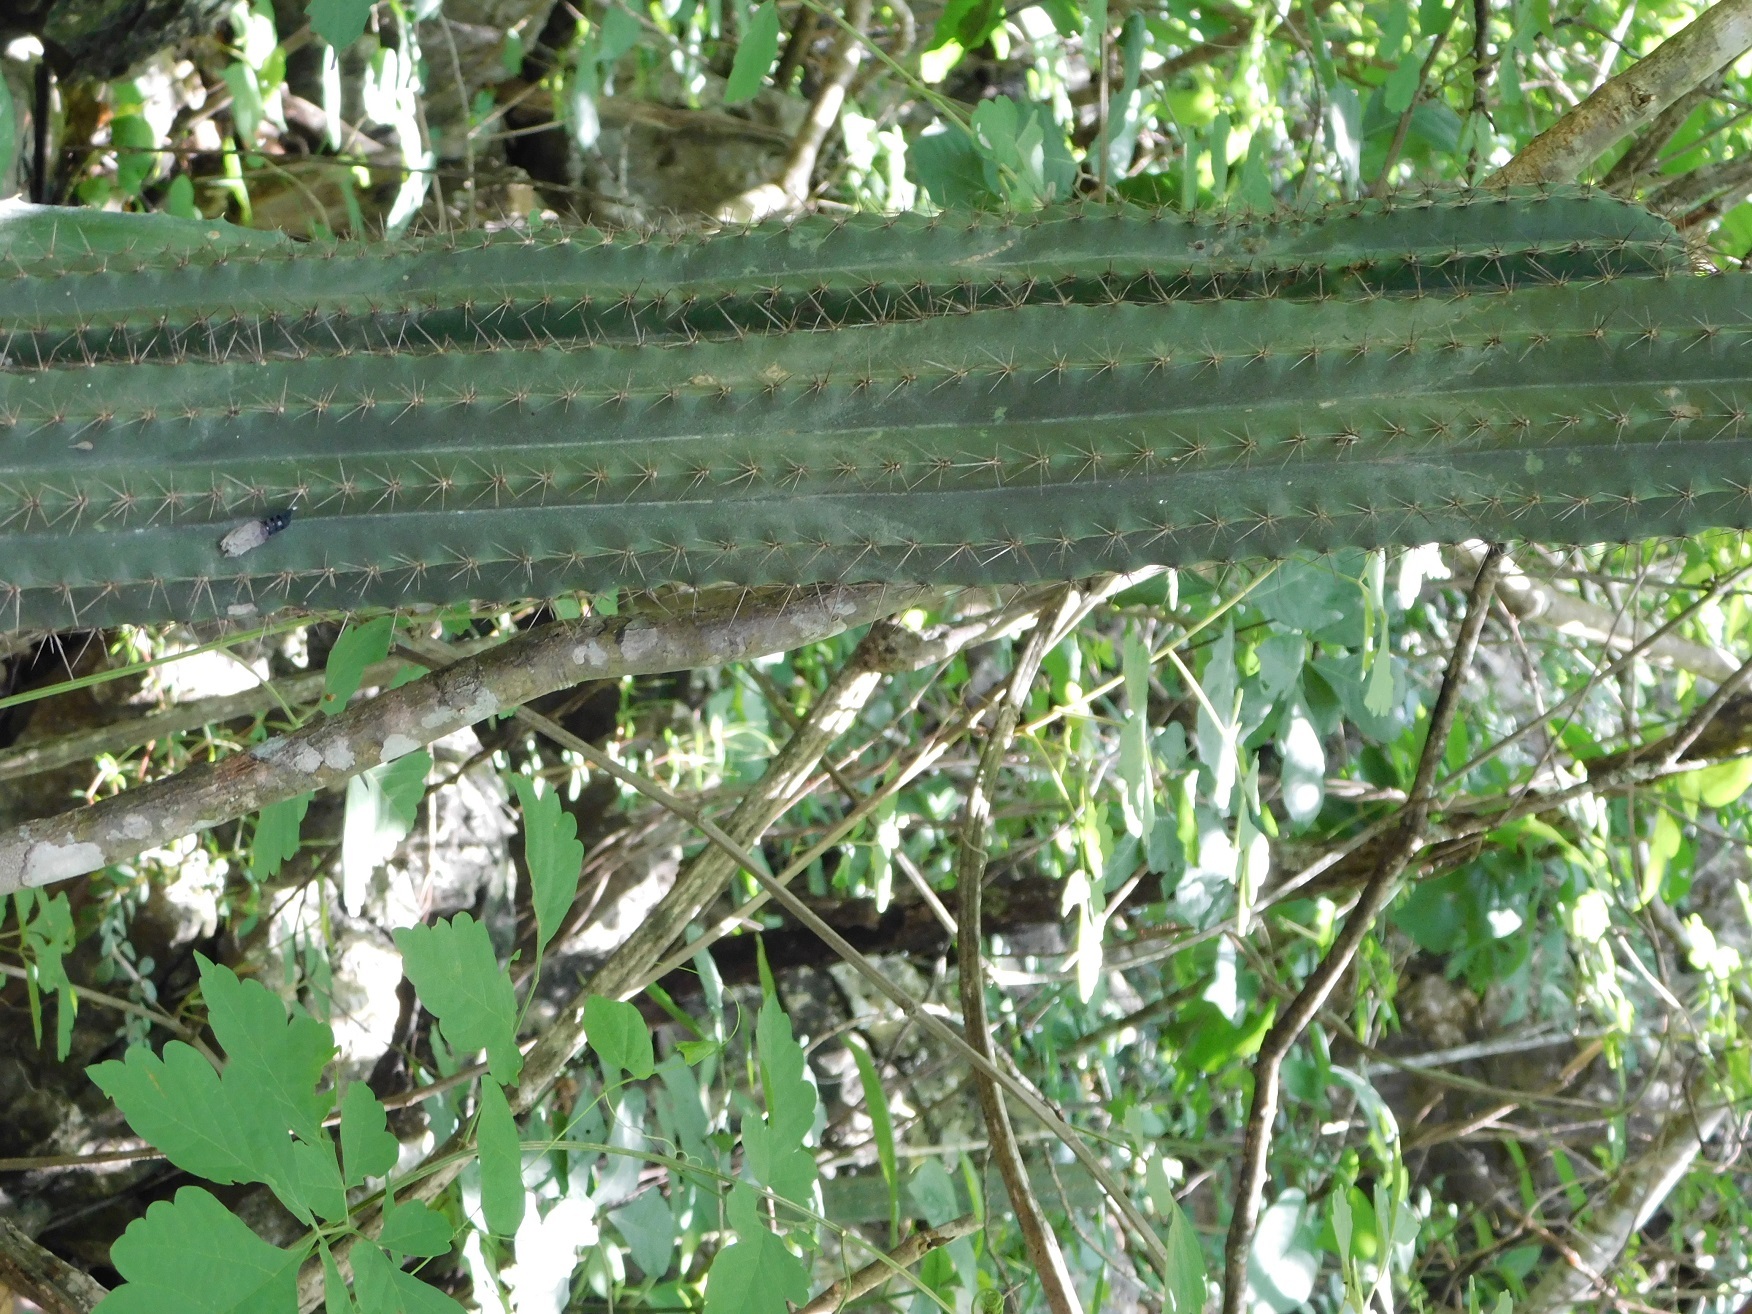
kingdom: Plantae
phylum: Tracheophyta
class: Magnoliopsida
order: Caryophyllales
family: Cactaceae
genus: Stenocereus
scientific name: Stenocereus pruinosus
